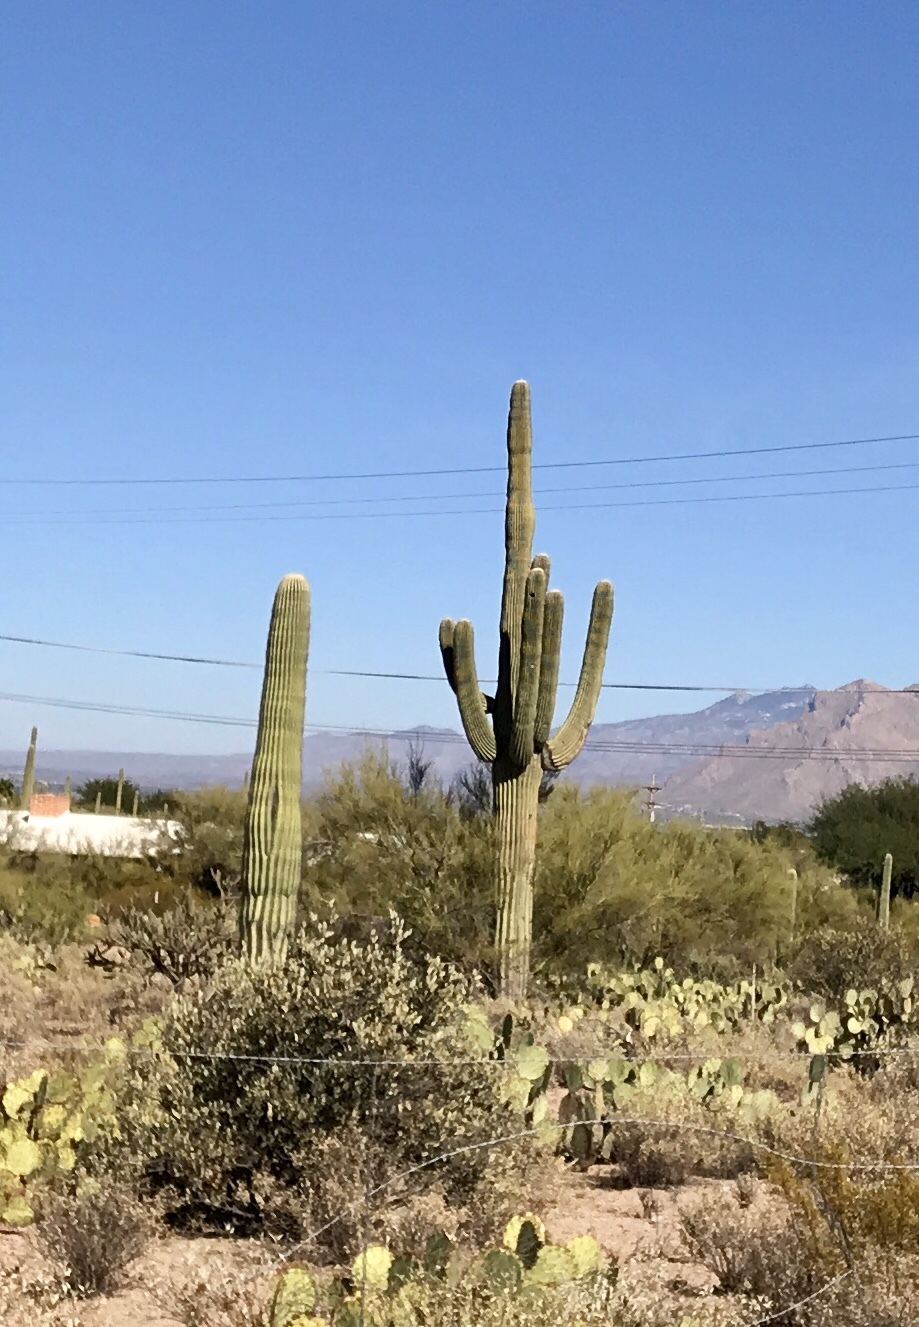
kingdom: Plantae
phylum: Tracheophyta
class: Magnoliopsida
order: Caryophyllales
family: Cactaceae
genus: Carnegiea
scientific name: Carnegiea gigantea
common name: Saguaro
